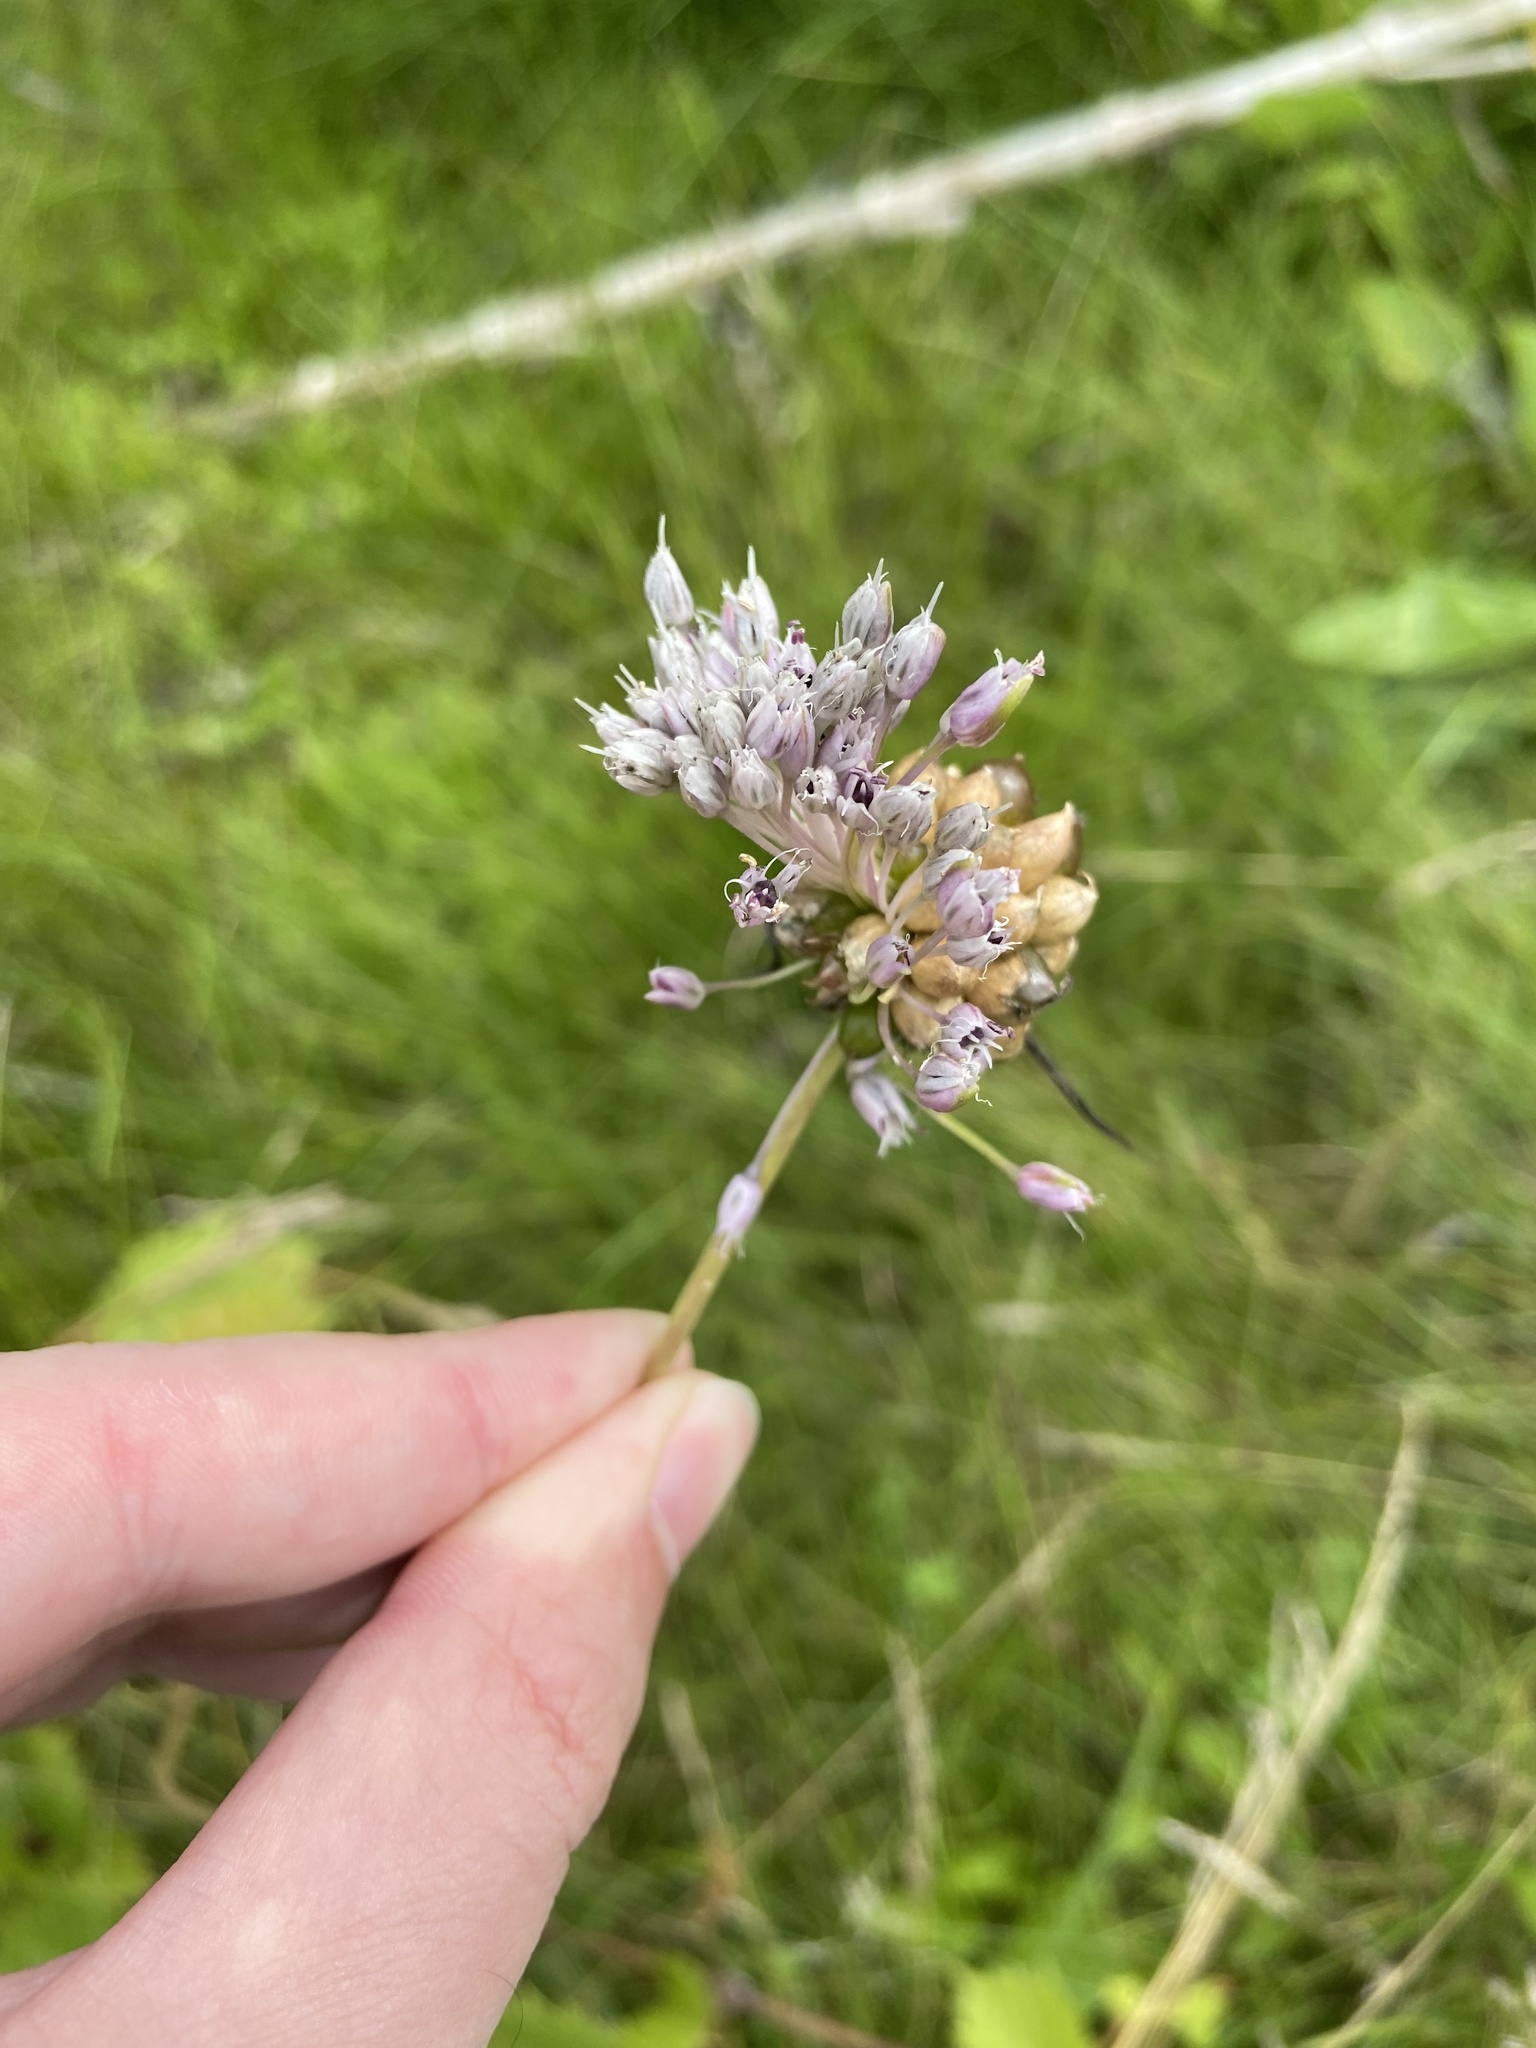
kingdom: Plantae
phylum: Tracheophyta
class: Liliopsida
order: Asparagales
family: Amaryllidaceae
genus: Allium
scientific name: Allium vineale
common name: Crow garlic
